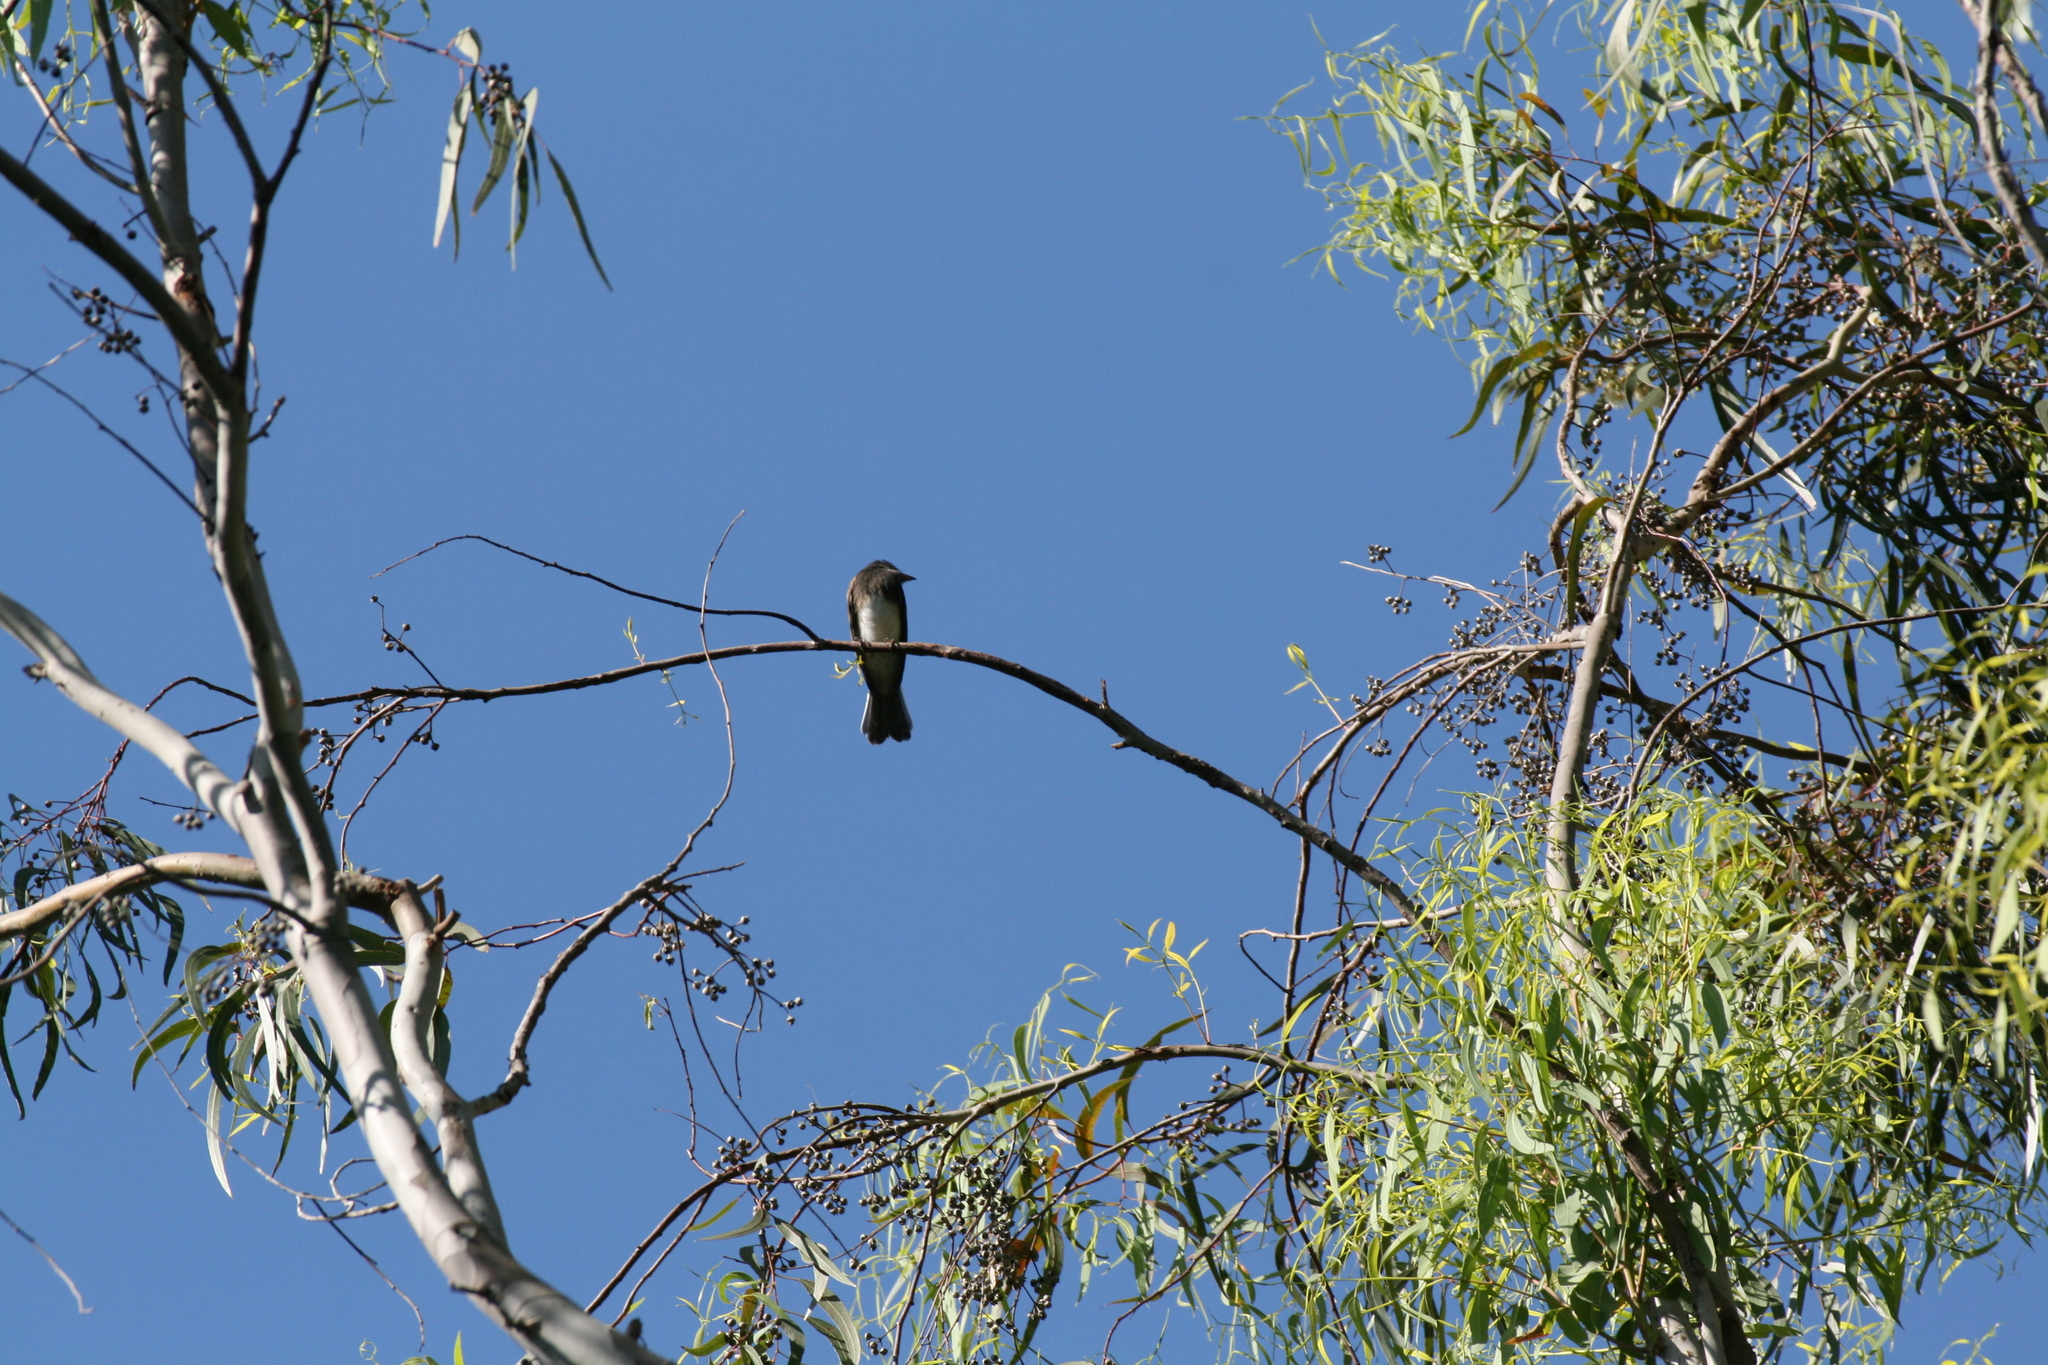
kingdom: Animalia
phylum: Chordata
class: Aves
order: Passeriformes
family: Tyrannidae
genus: Sayornis
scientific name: Sayornis nigricans
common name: Black phoebe
